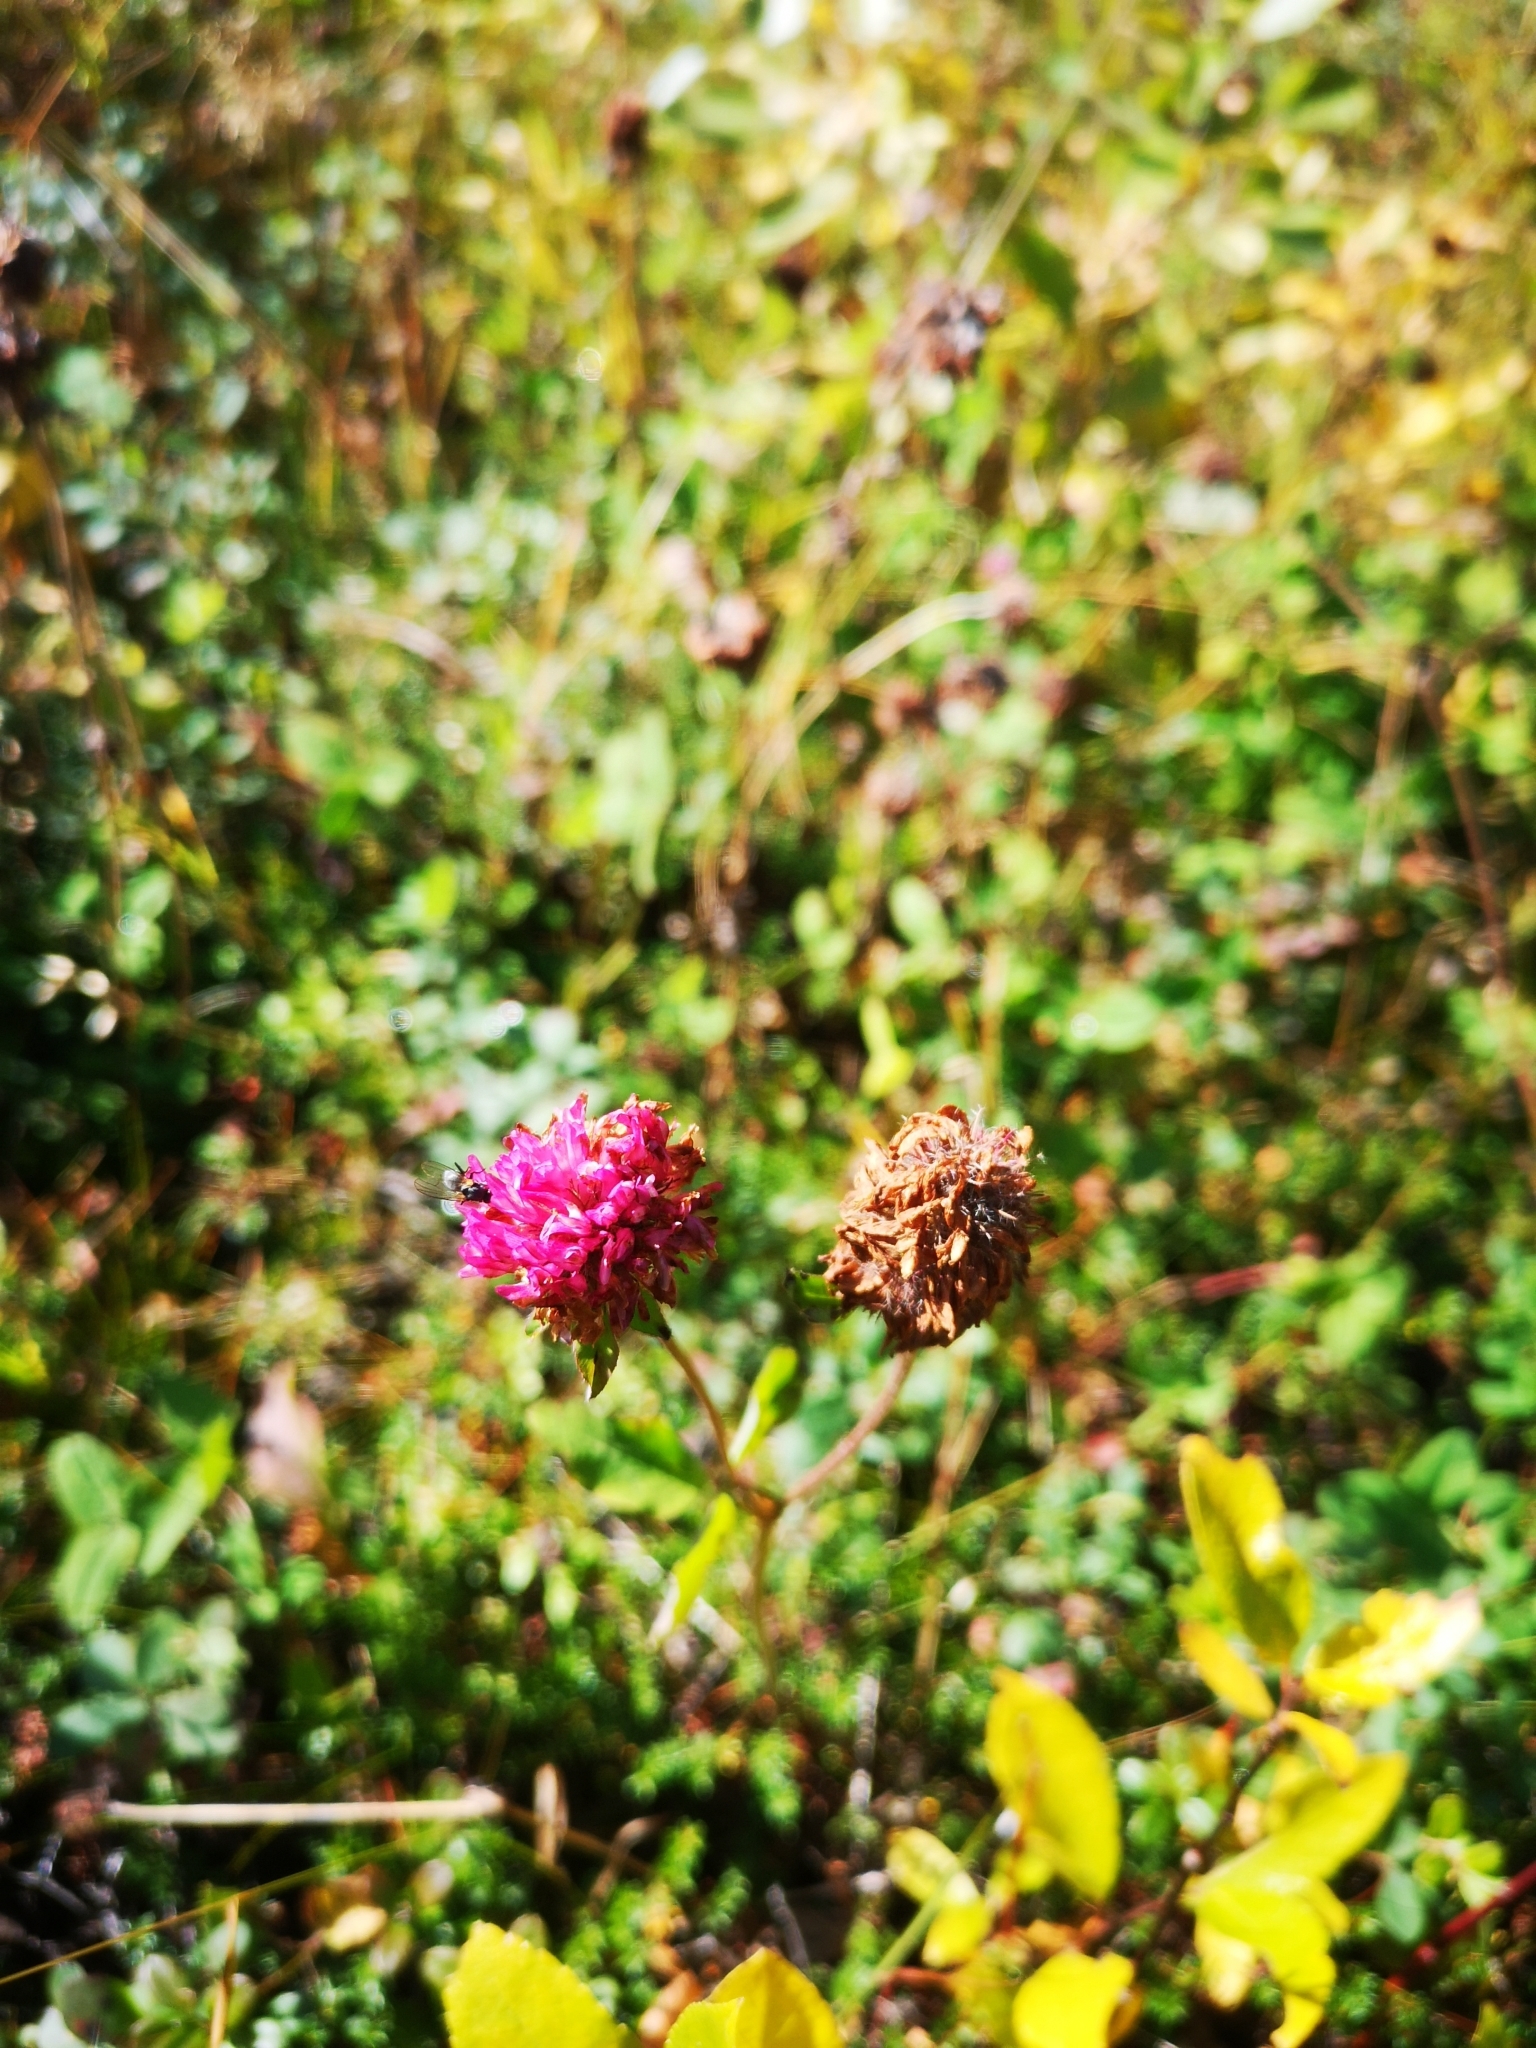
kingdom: Plantae
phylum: Tracheophyta
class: Magnoliopsida
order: Fabales
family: Fabaceae
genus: Trifolium
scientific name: Trifolium pratense
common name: Red clover
